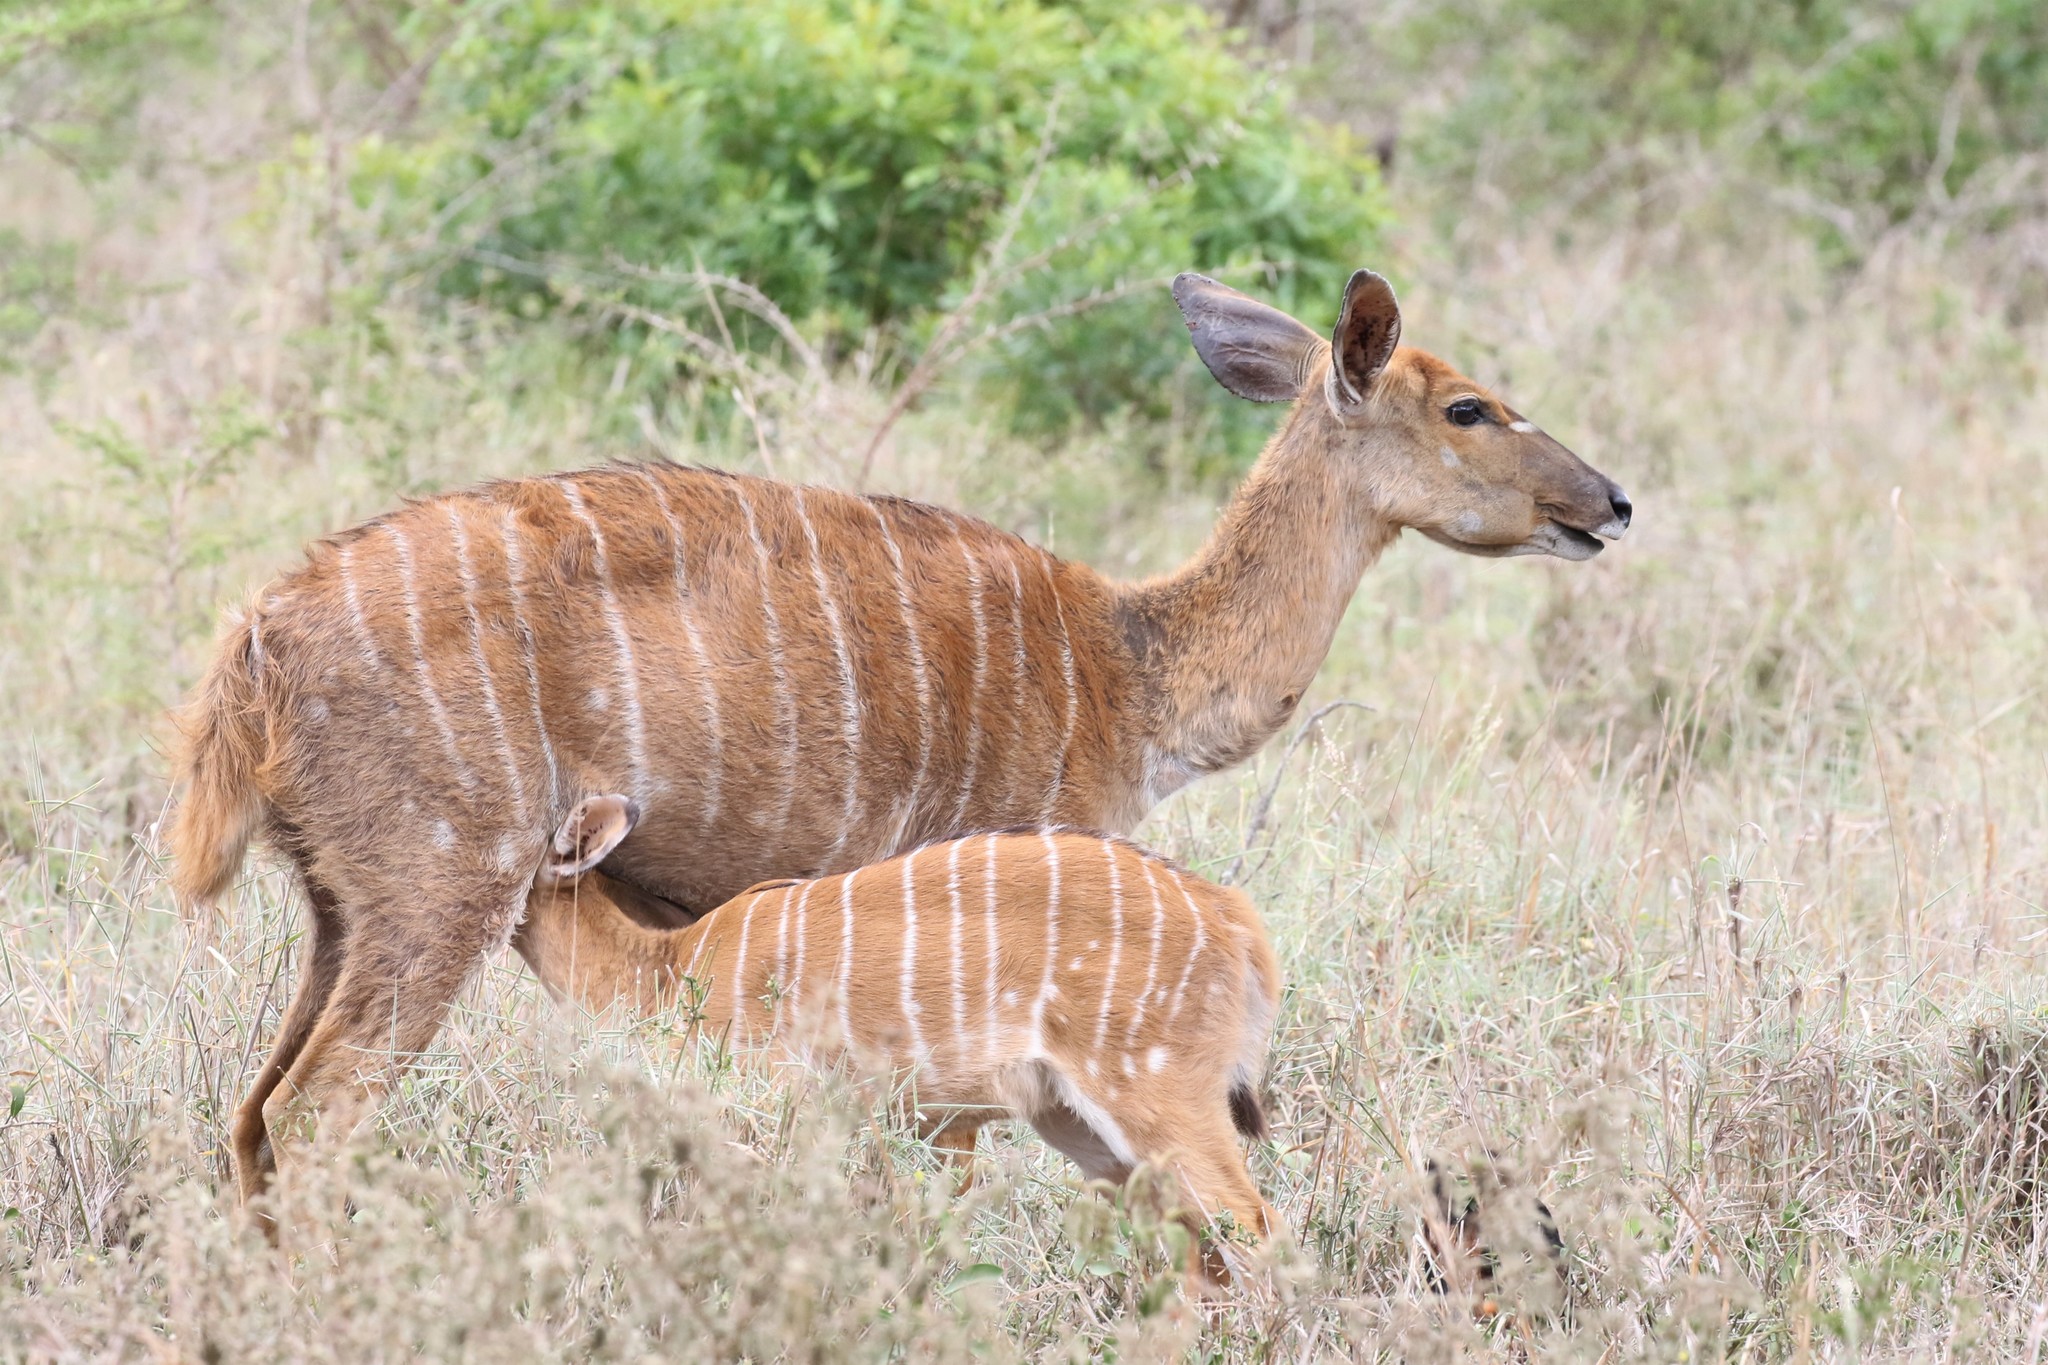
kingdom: Animalia
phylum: Chordata
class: Mammalia
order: Artiodactyla
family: Bovidae
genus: Tragelaphus
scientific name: Tragelaphus angasii
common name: Nyala
